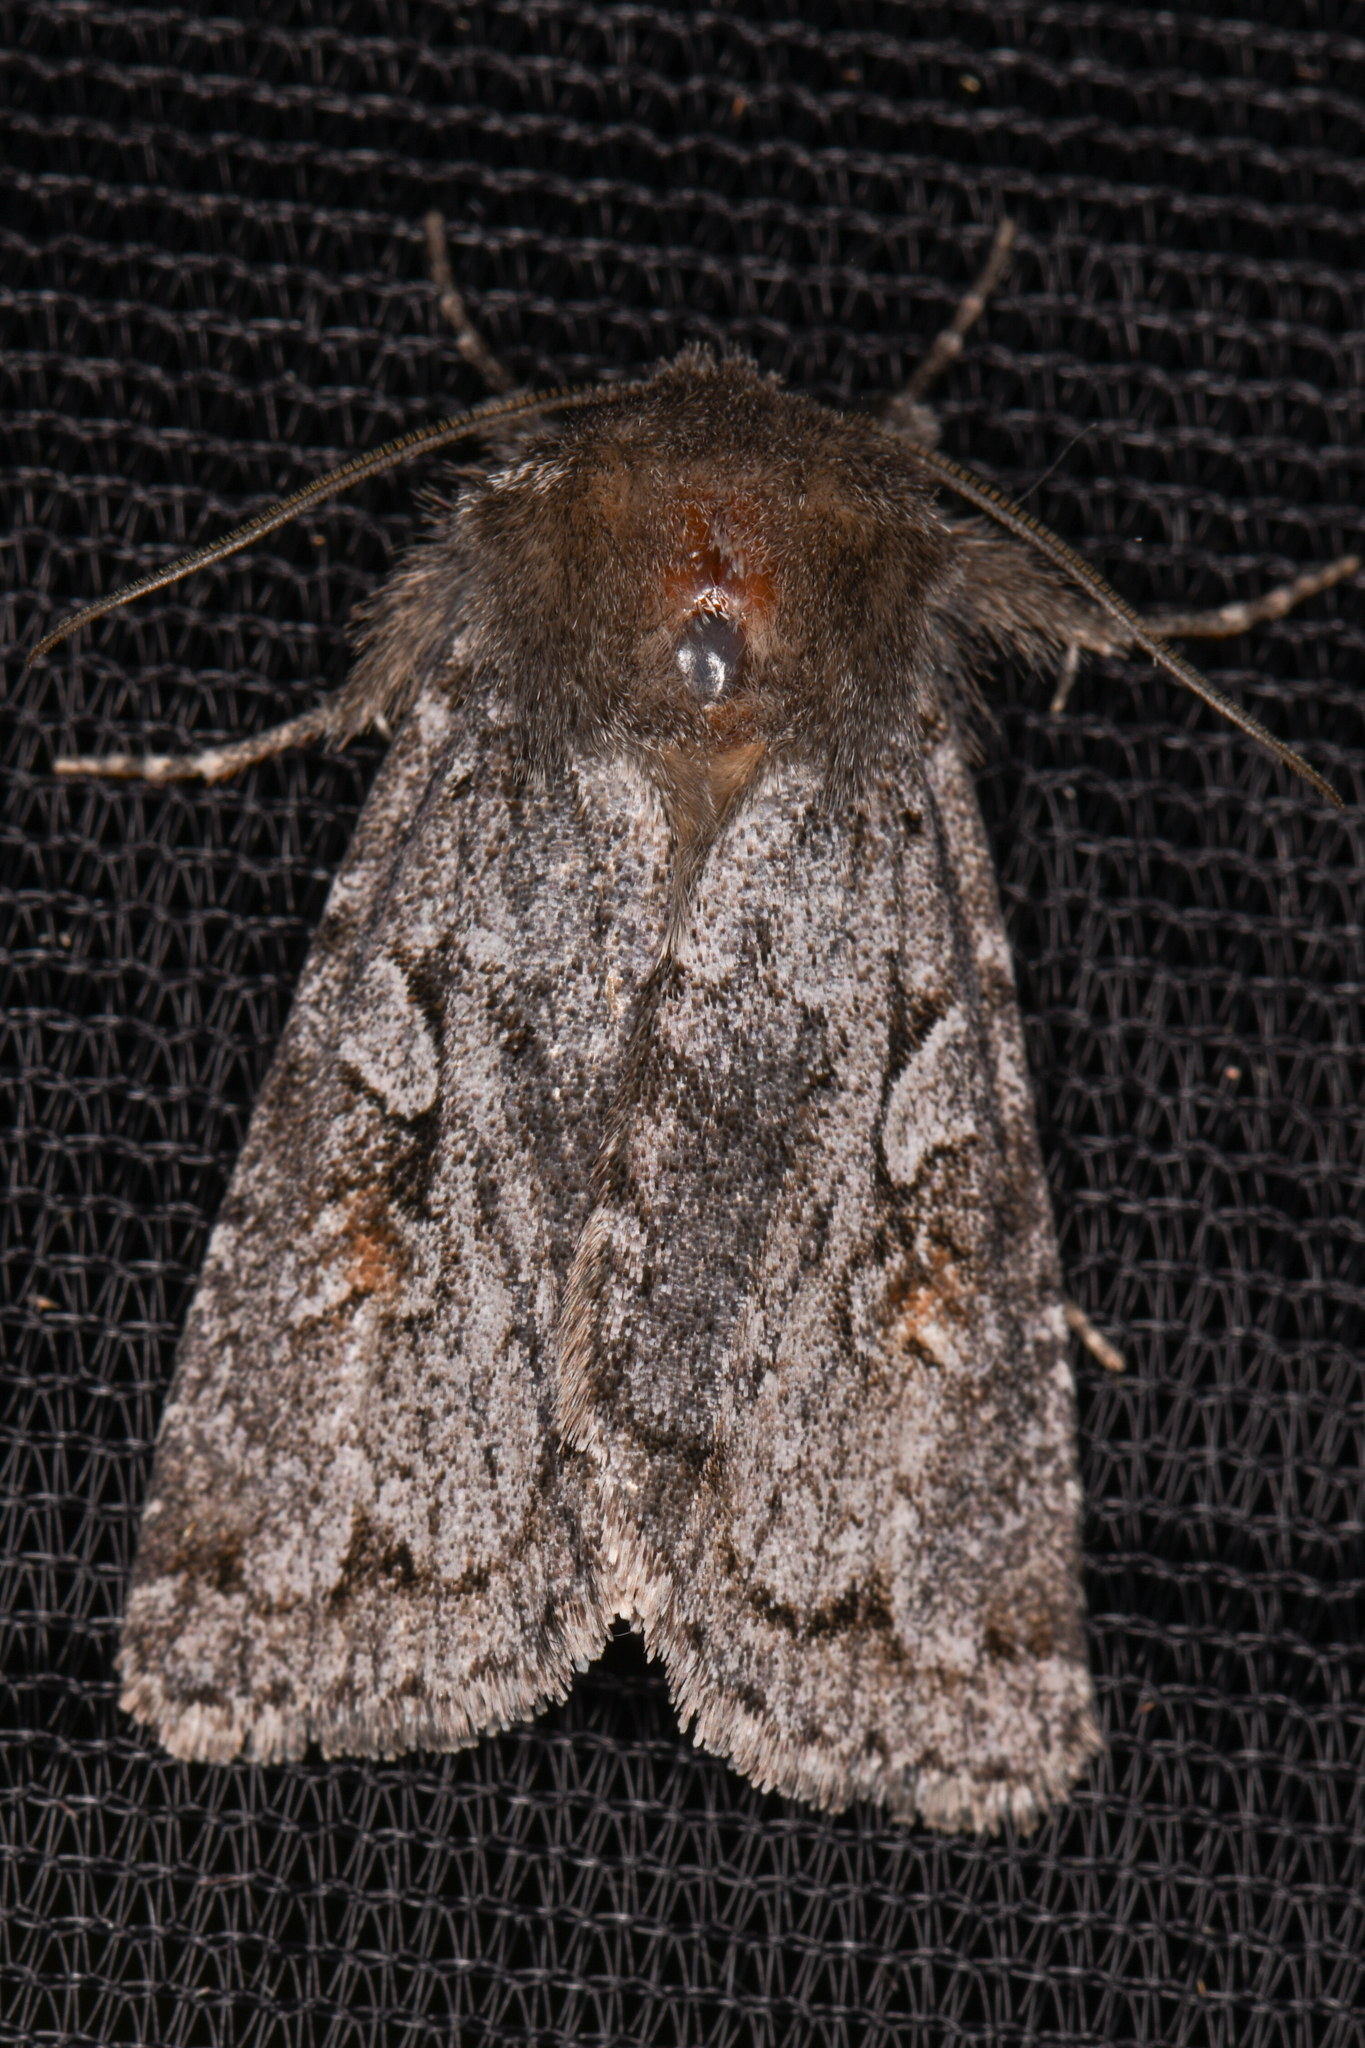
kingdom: Animalia
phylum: Arthropoda
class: Insecta
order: Lepidoptera
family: Noctuidae
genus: Xestia
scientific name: Xestia imperita
